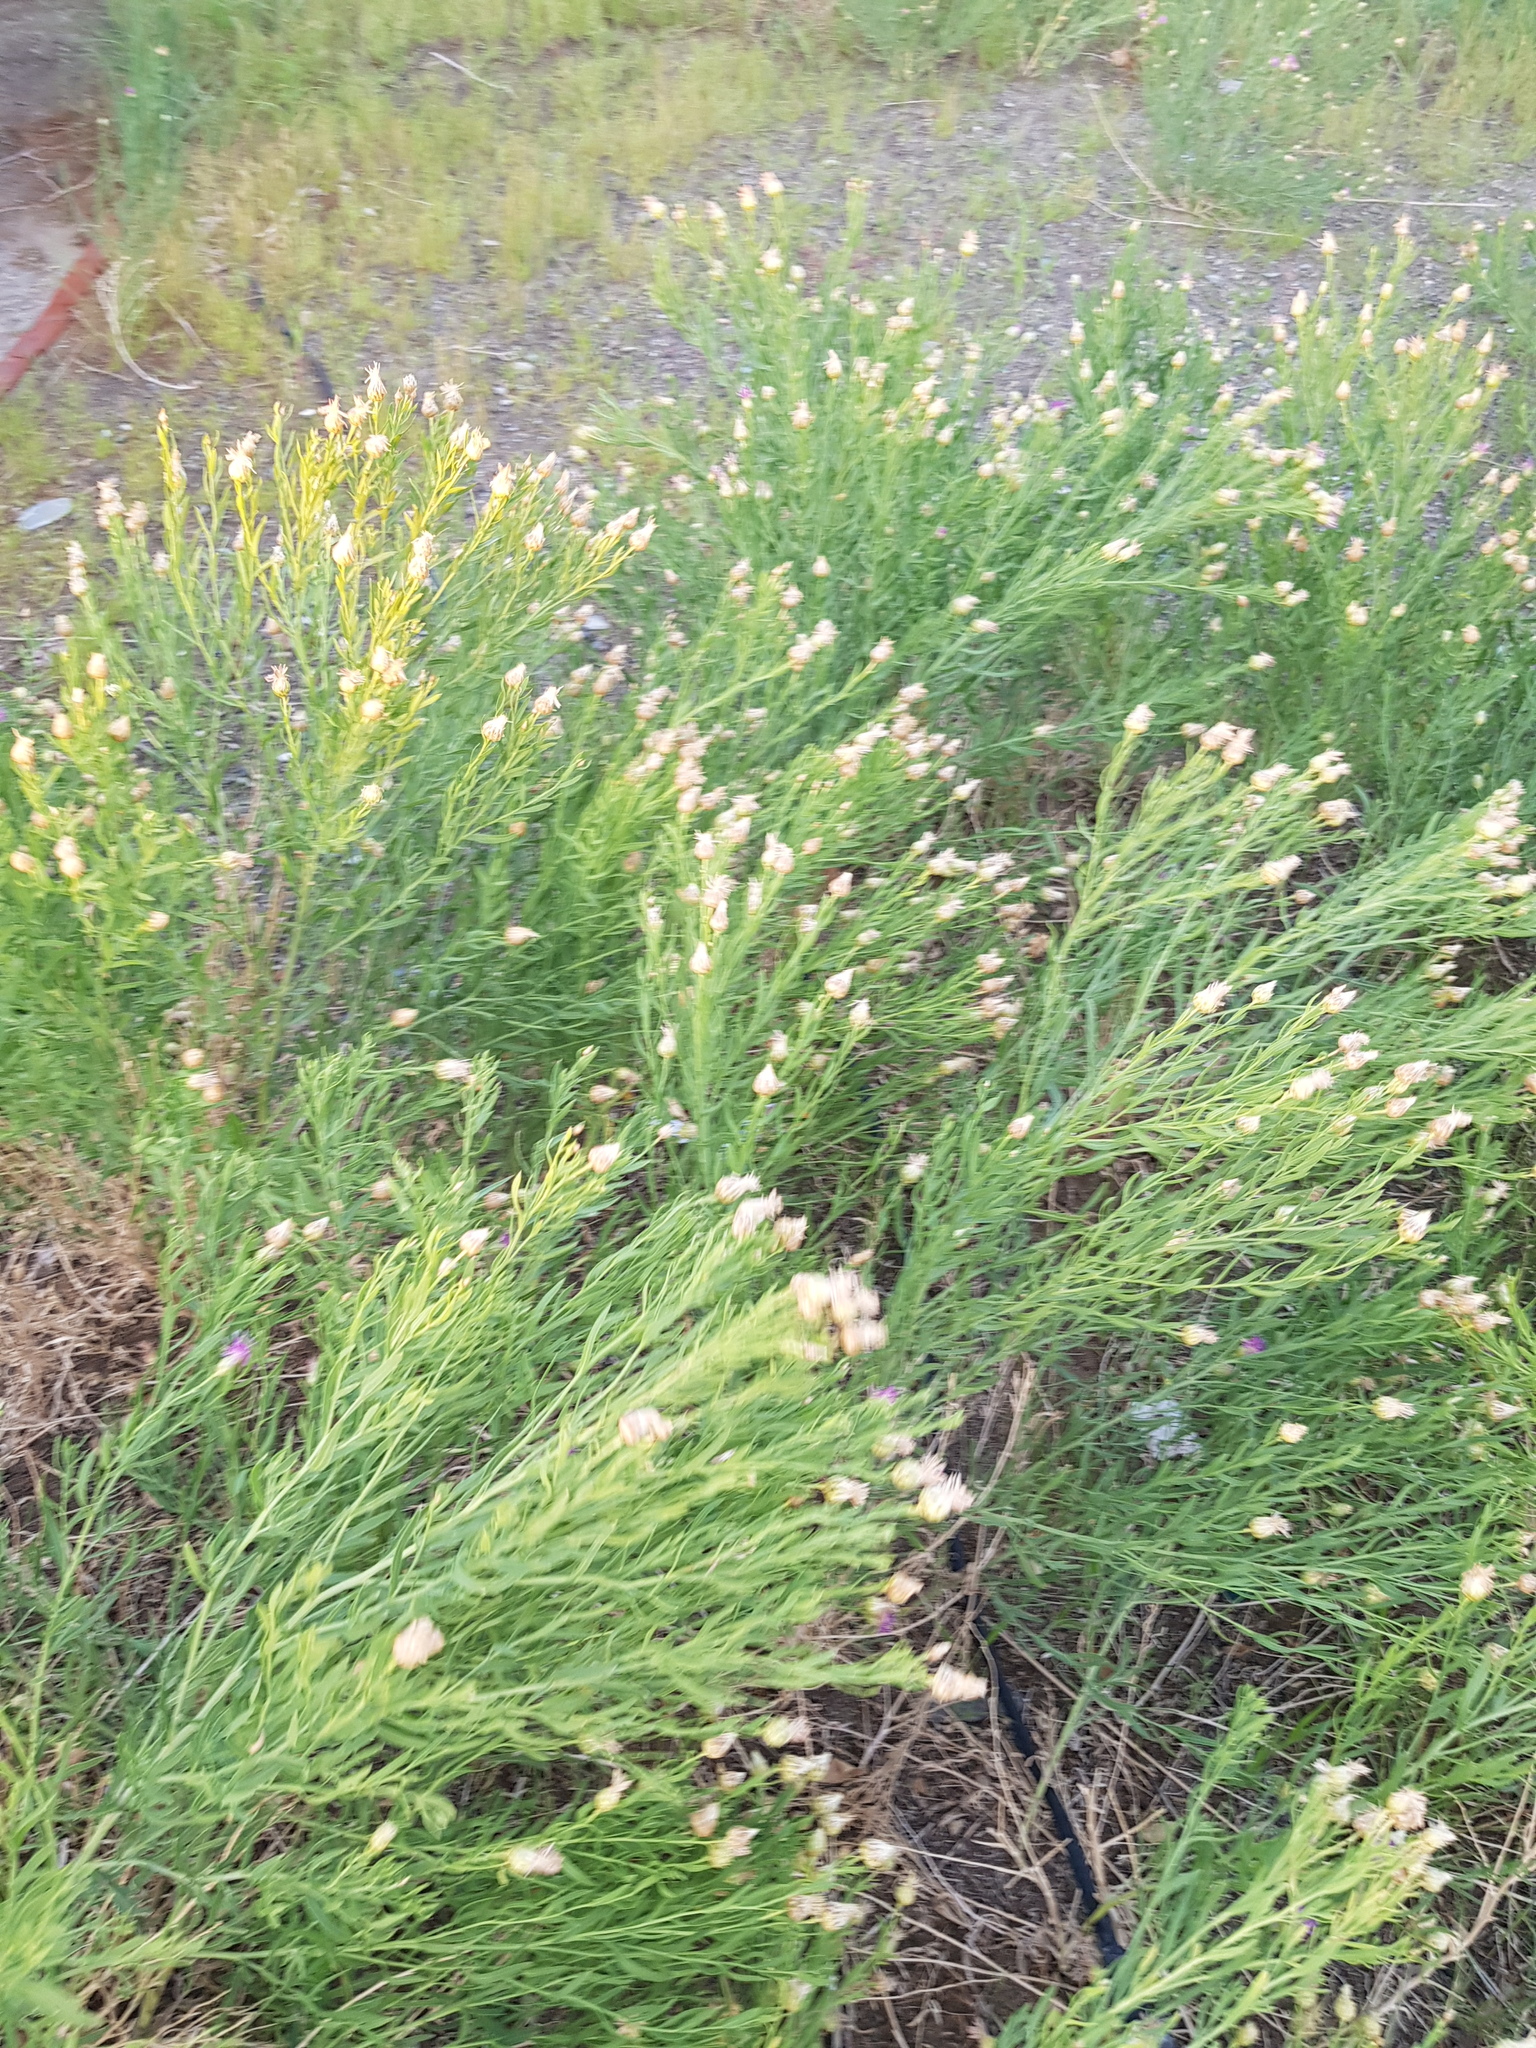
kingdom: Plantae
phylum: Tracheophyta
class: Magnoliopsida
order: Asterales
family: Asteraceae
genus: Leuzea
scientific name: Leuzea repens
